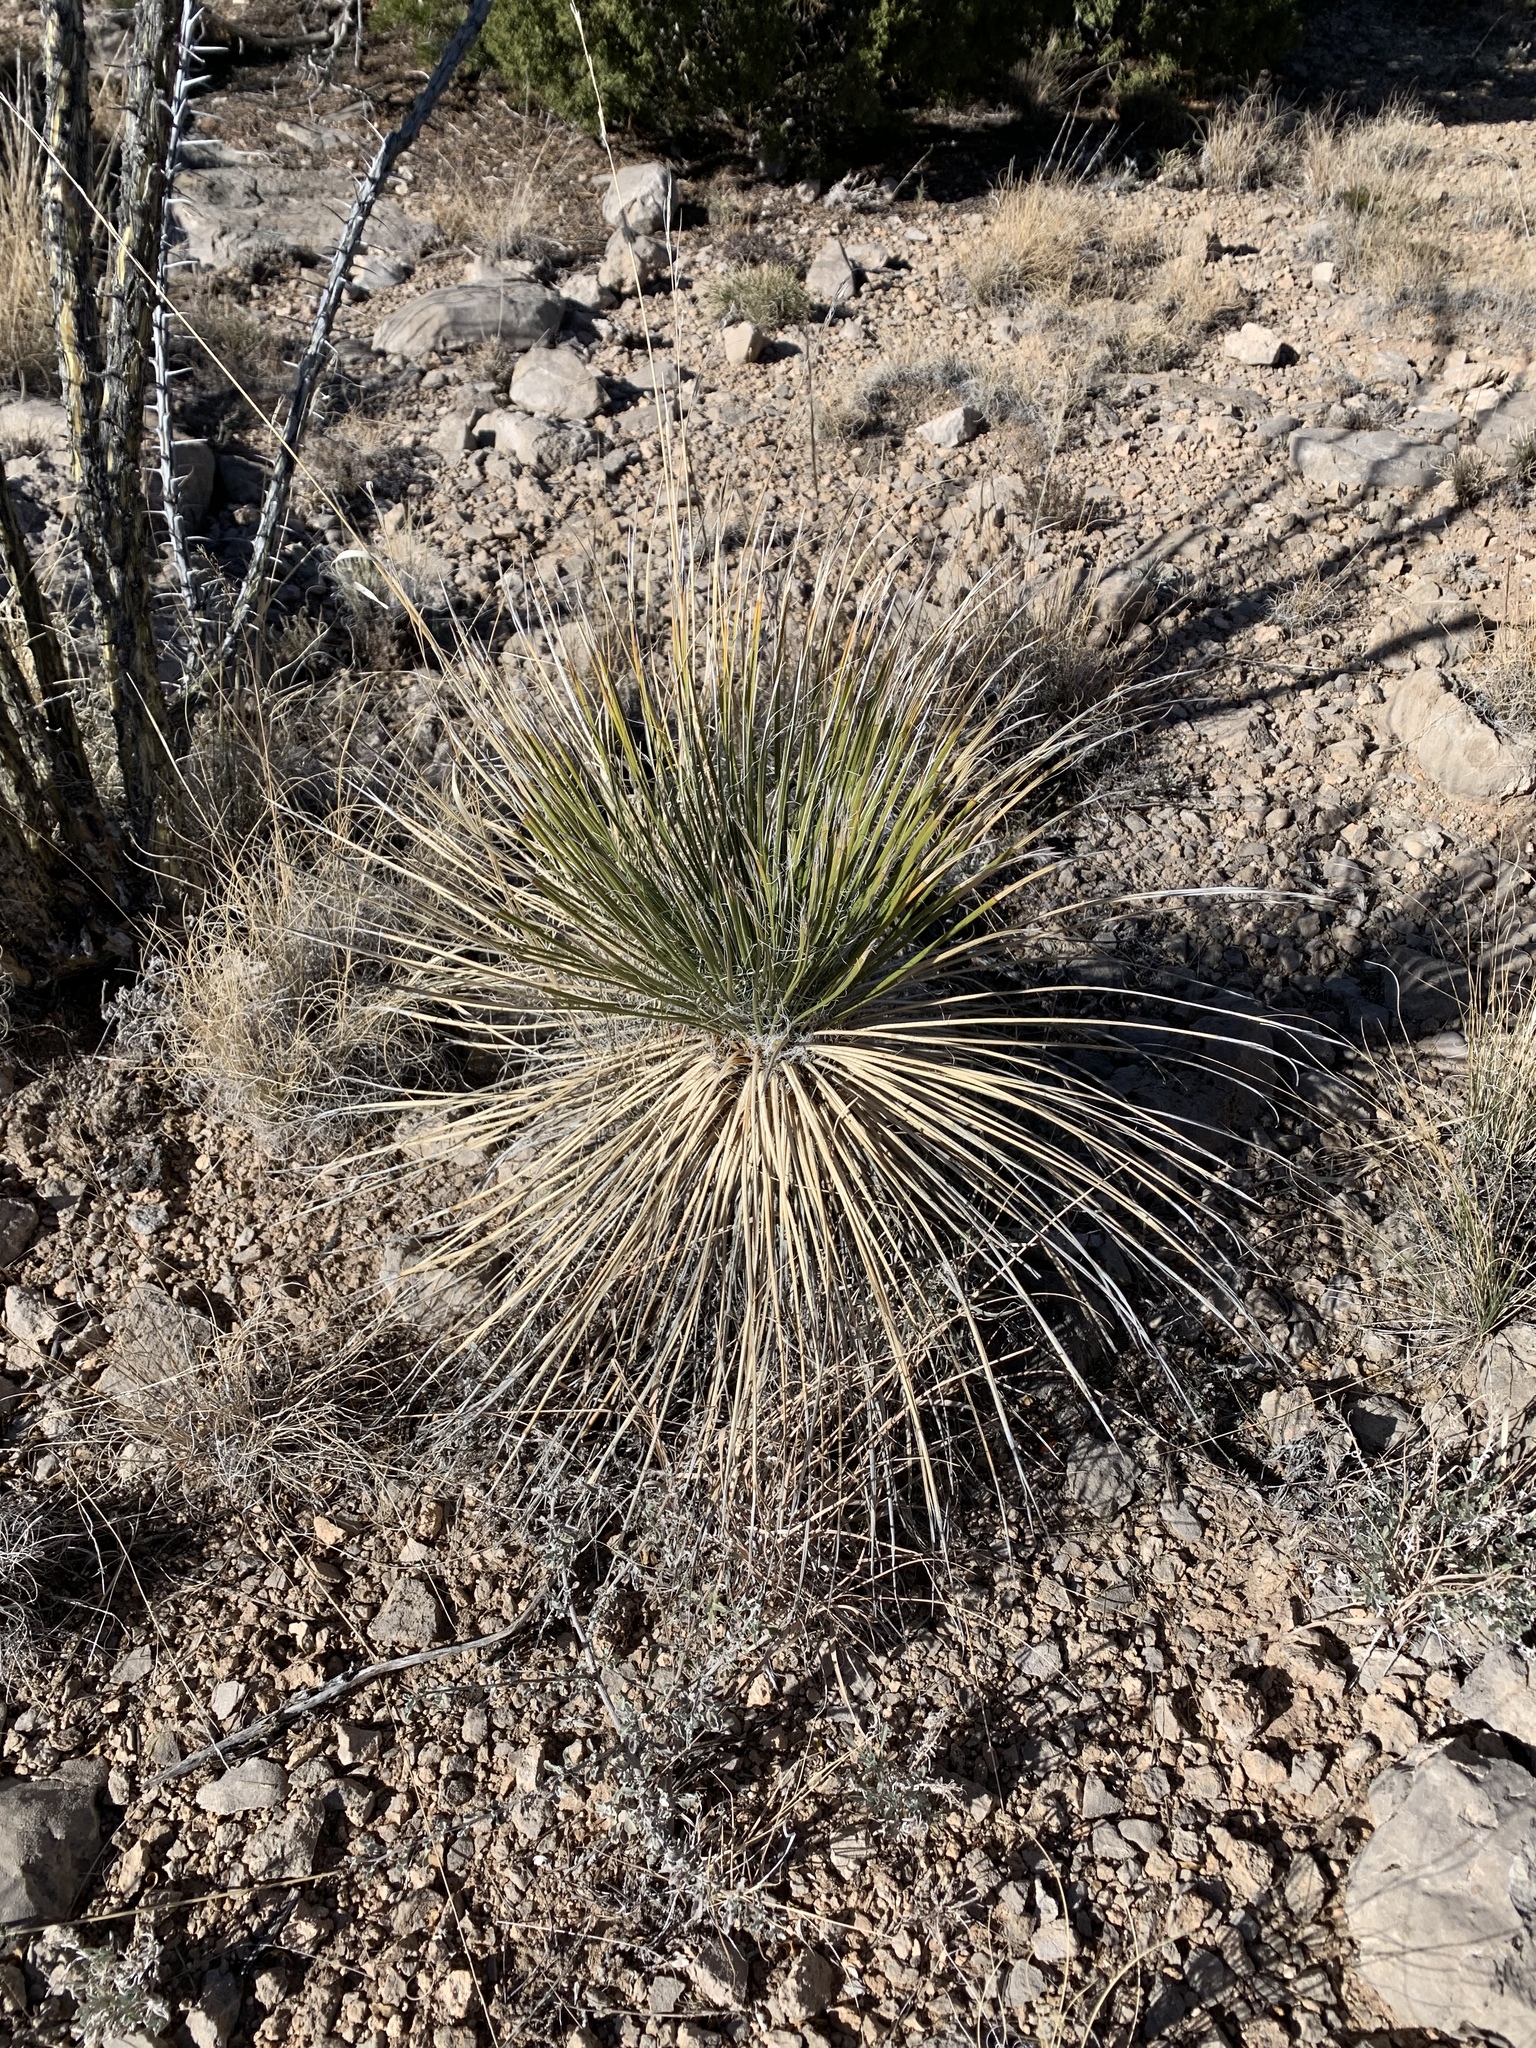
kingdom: Plantae
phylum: Tracheophyta
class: Liliopsida
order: Asparagales
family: Asparagaceae
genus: Yucca
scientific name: Yucca elata
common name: Palmella
